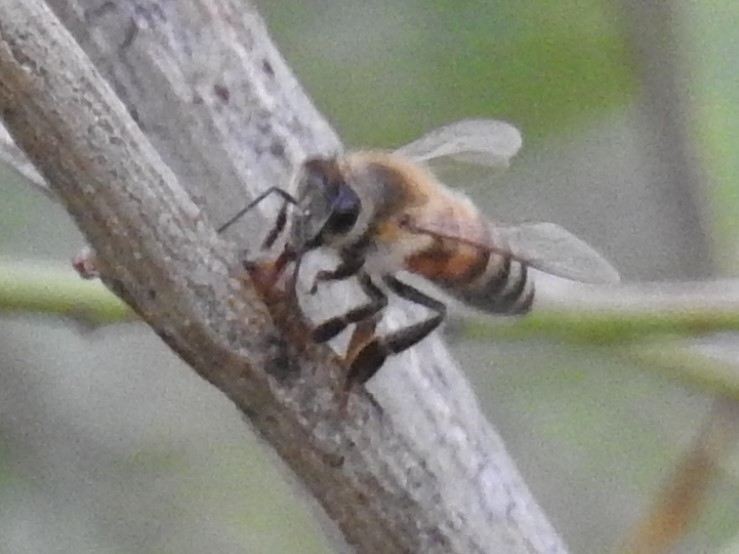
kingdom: Animalia
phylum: Arthropoda
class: Insecta
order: Hymenoptera
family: Apidae
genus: Apis
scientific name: Apis mellifera
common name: Honey bee
